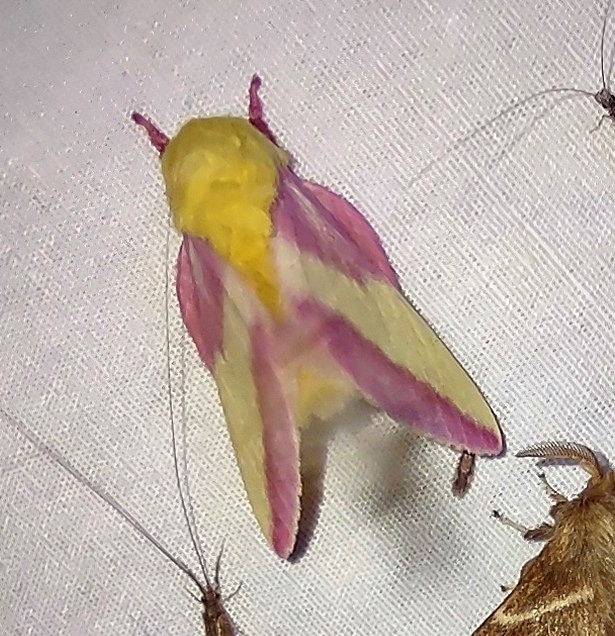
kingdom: Animalia
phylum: Arthropoda
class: Insecta
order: Lepidoptera
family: Saturniidae
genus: Dryocampa
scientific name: Dryocampa rubicunda
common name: Rosy maple moth
